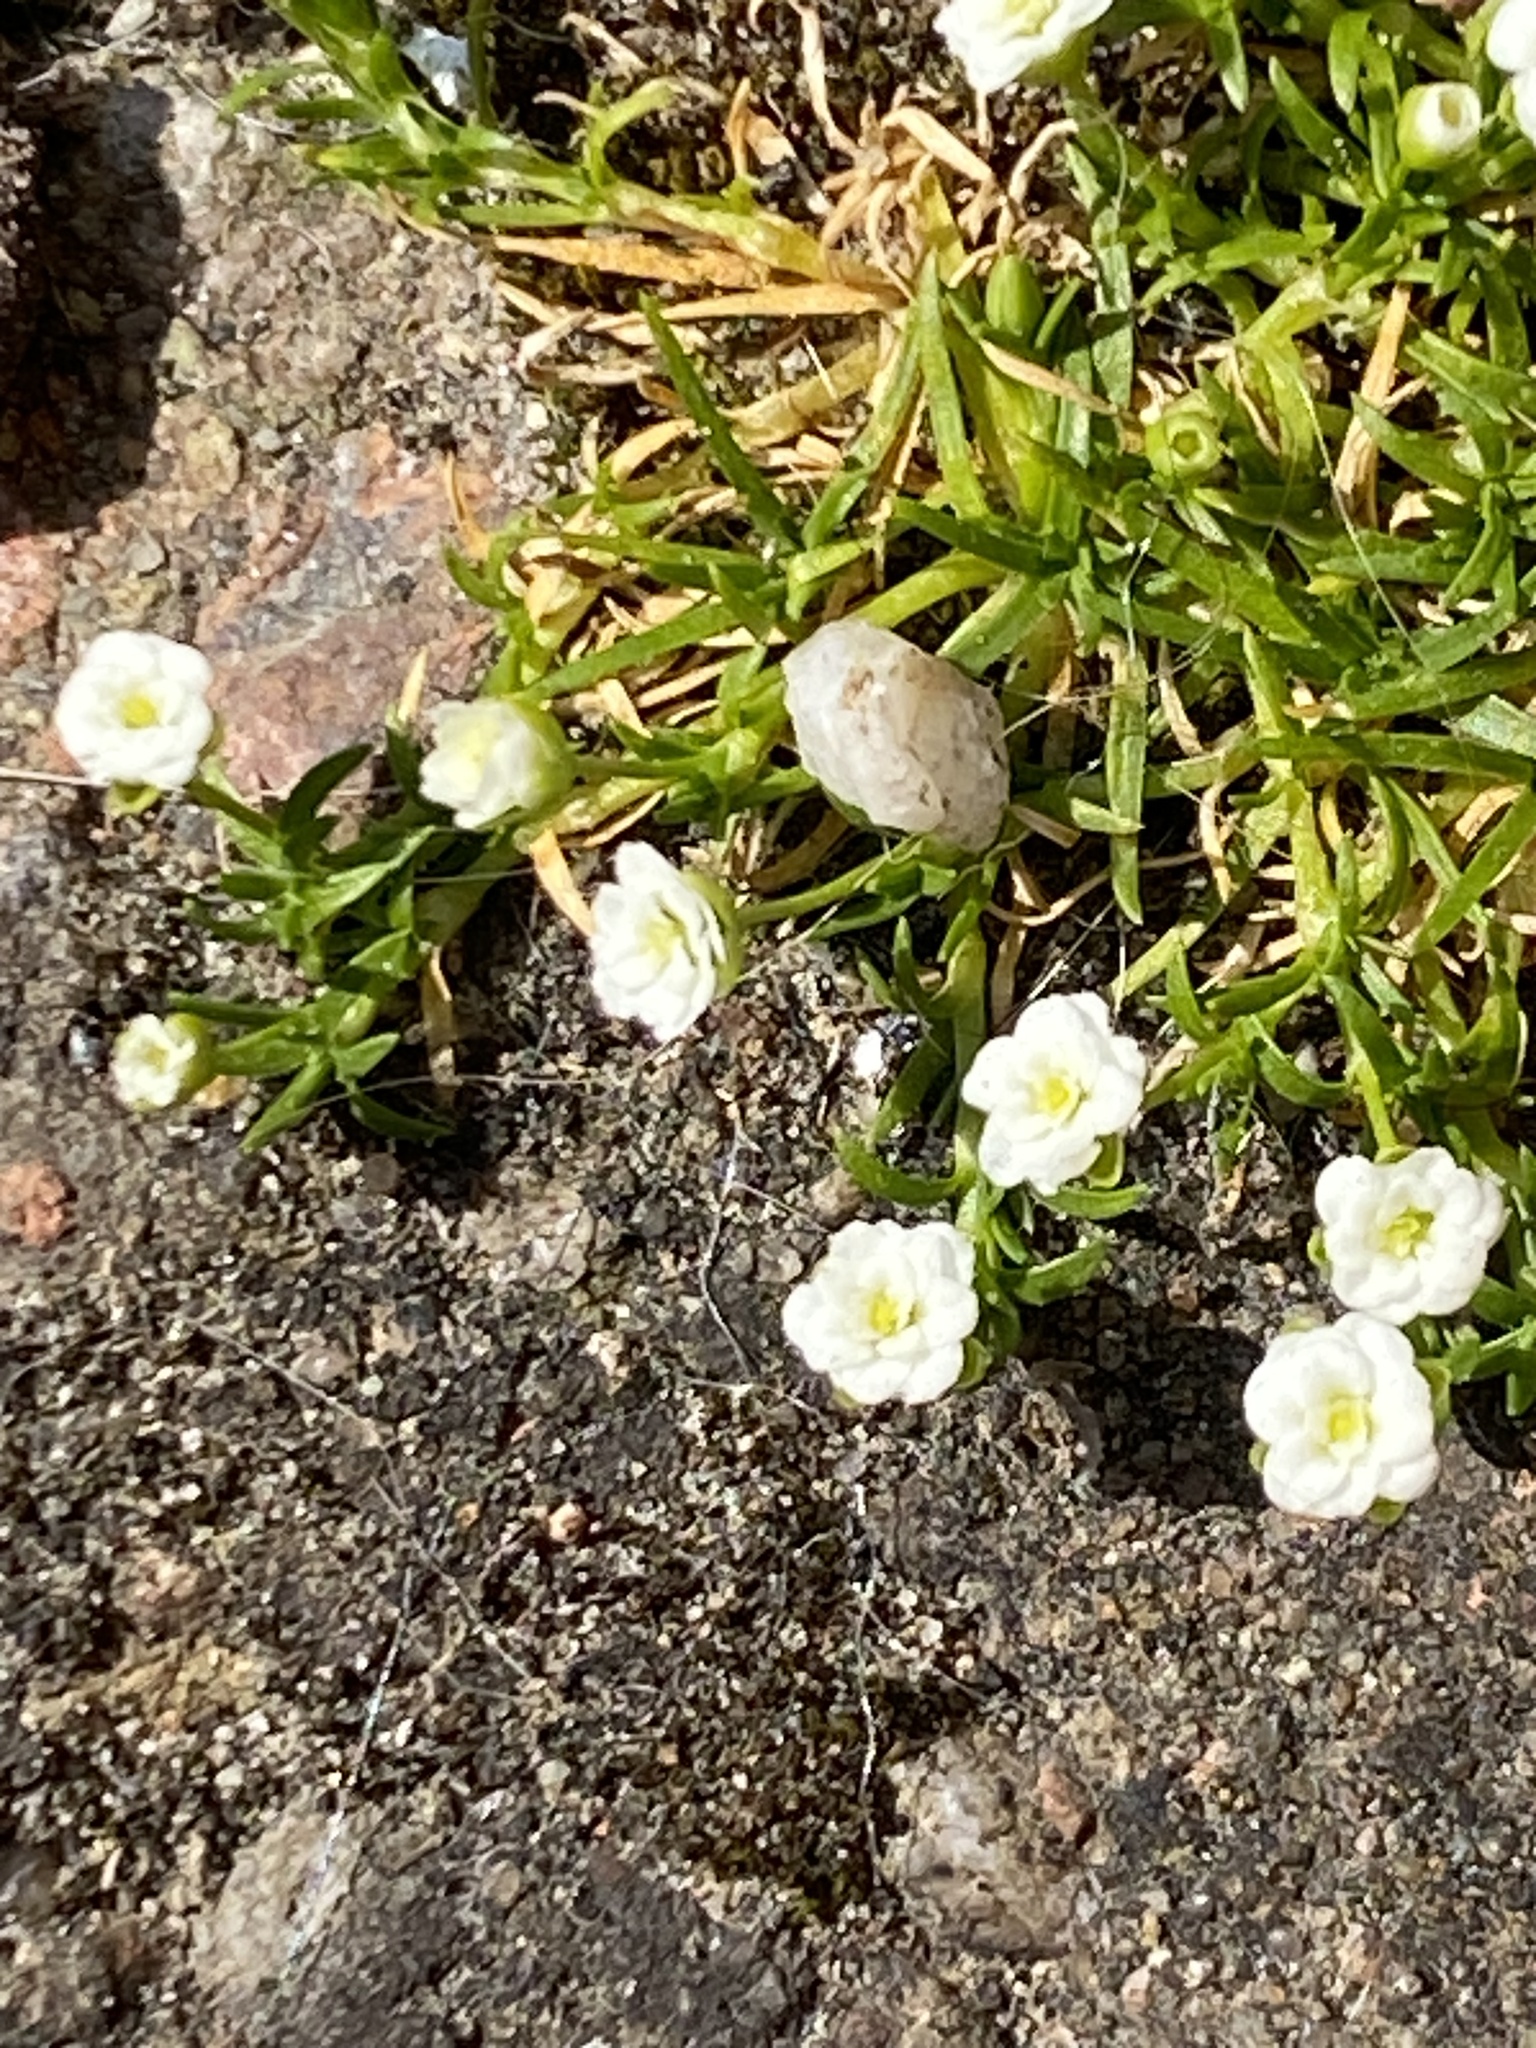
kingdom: Plantae
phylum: Tracheophyta
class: Magnoliopsida
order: Caryophyllales
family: Caryophyllaceae
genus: Sagina
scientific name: Sagina procumbens
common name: Procumbent pearlwort
